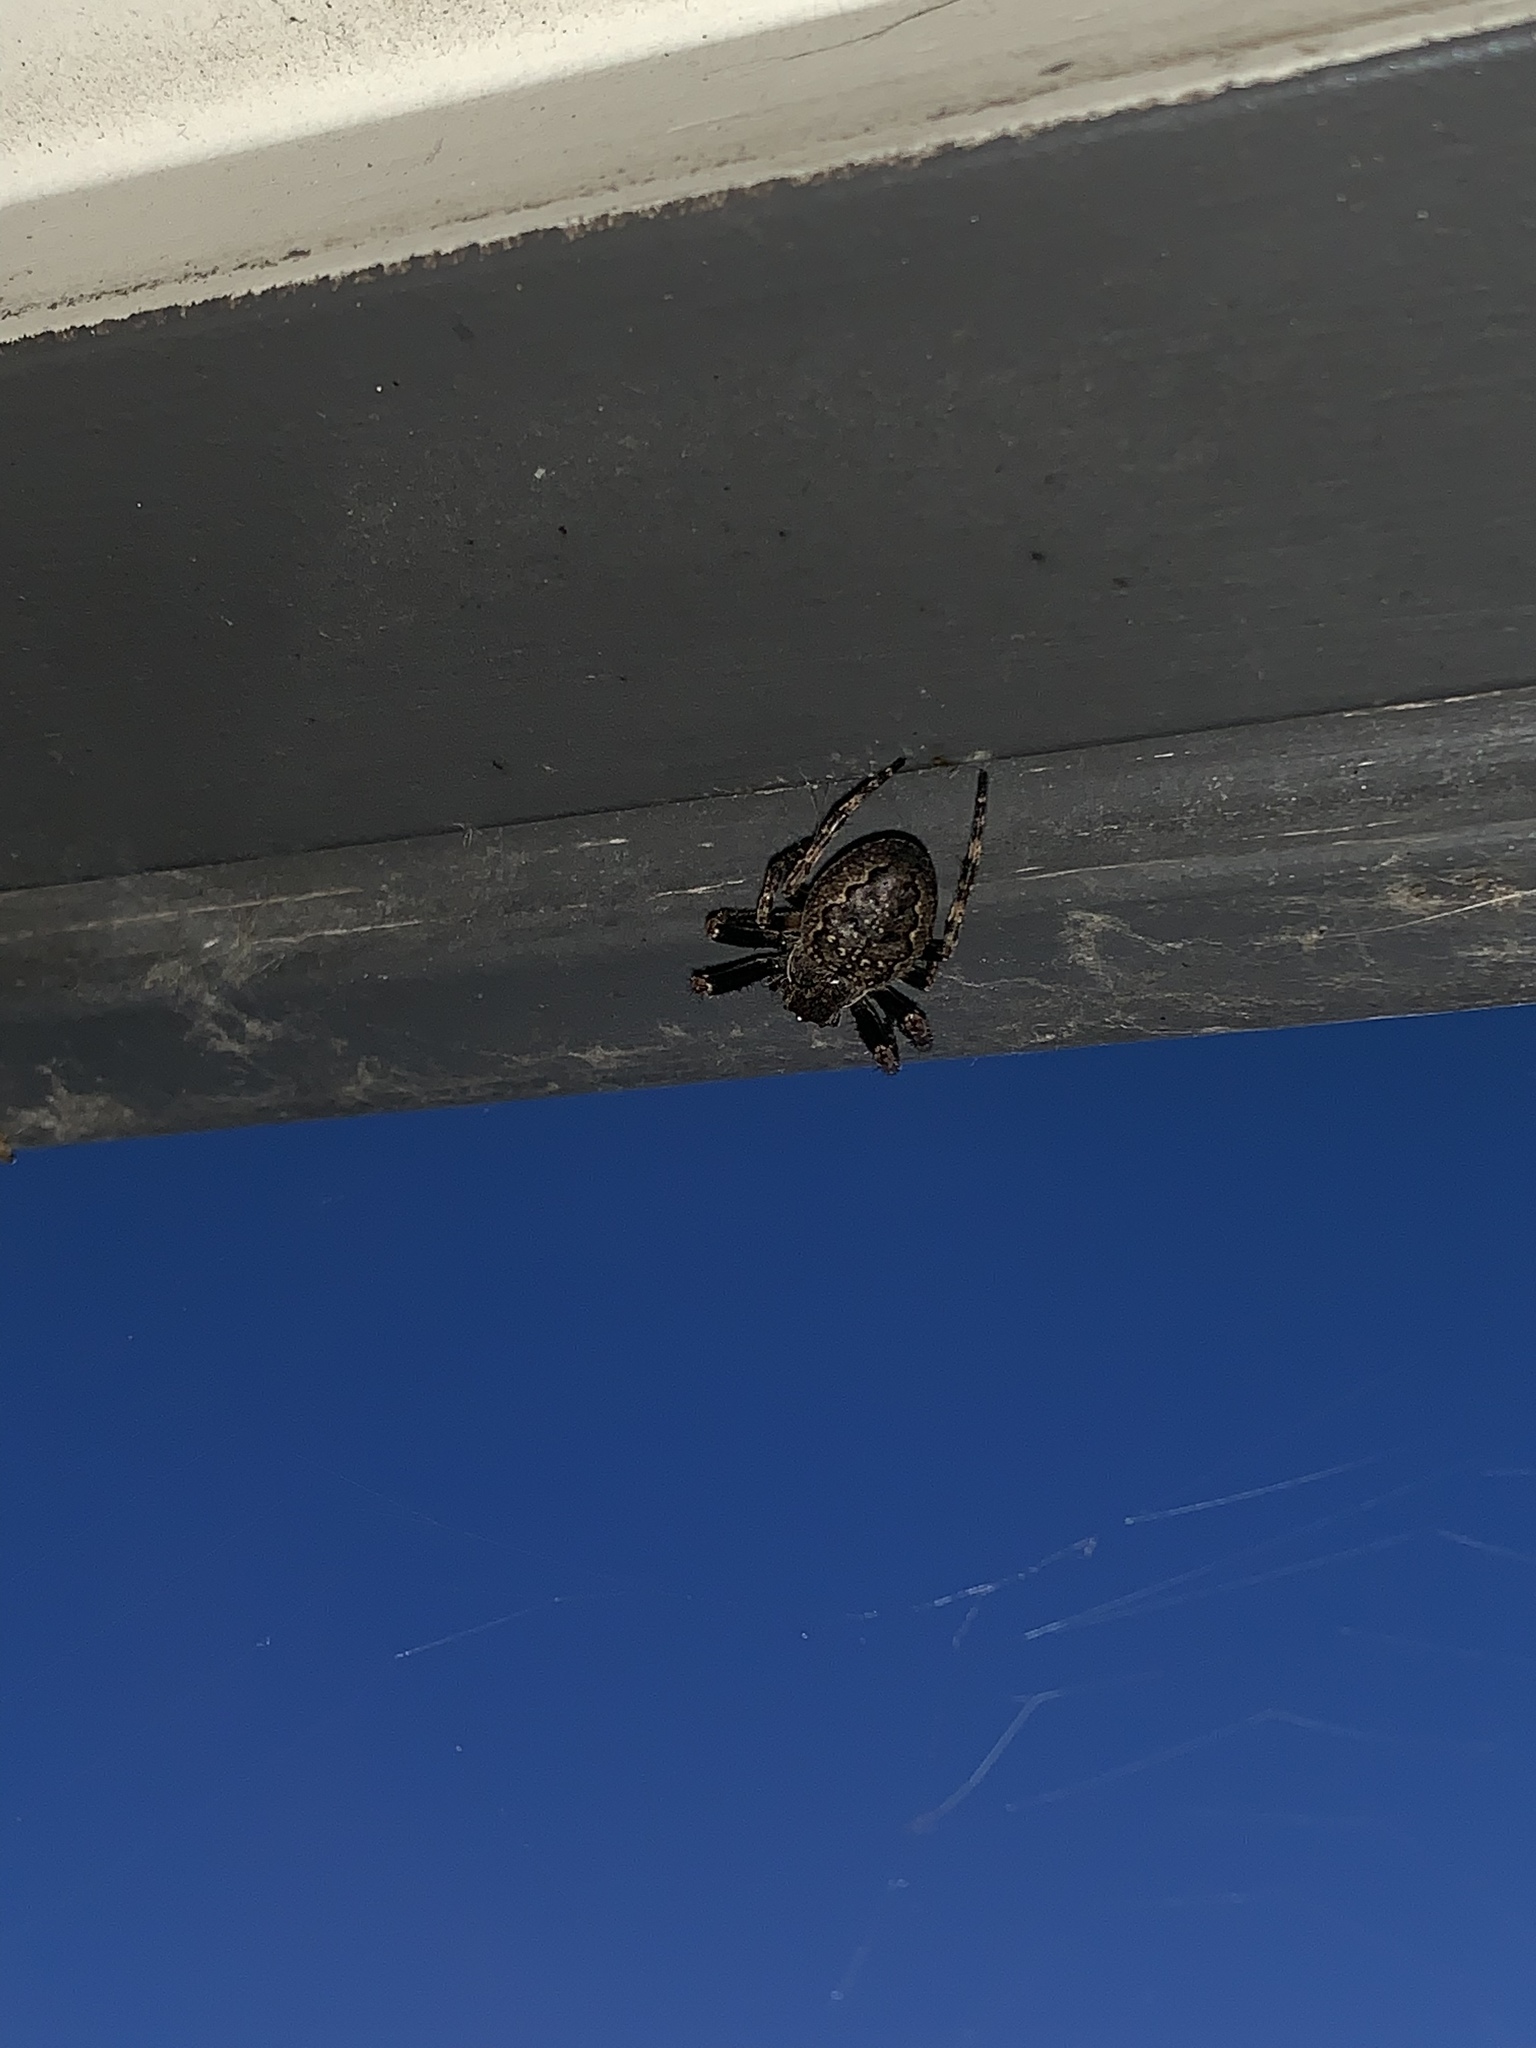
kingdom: Animalia
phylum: Arthropoda
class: Arachnida
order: Araneae
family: Araneidae
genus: Nuctenea
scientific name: Nuctenea umbratica
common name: Toad spider
